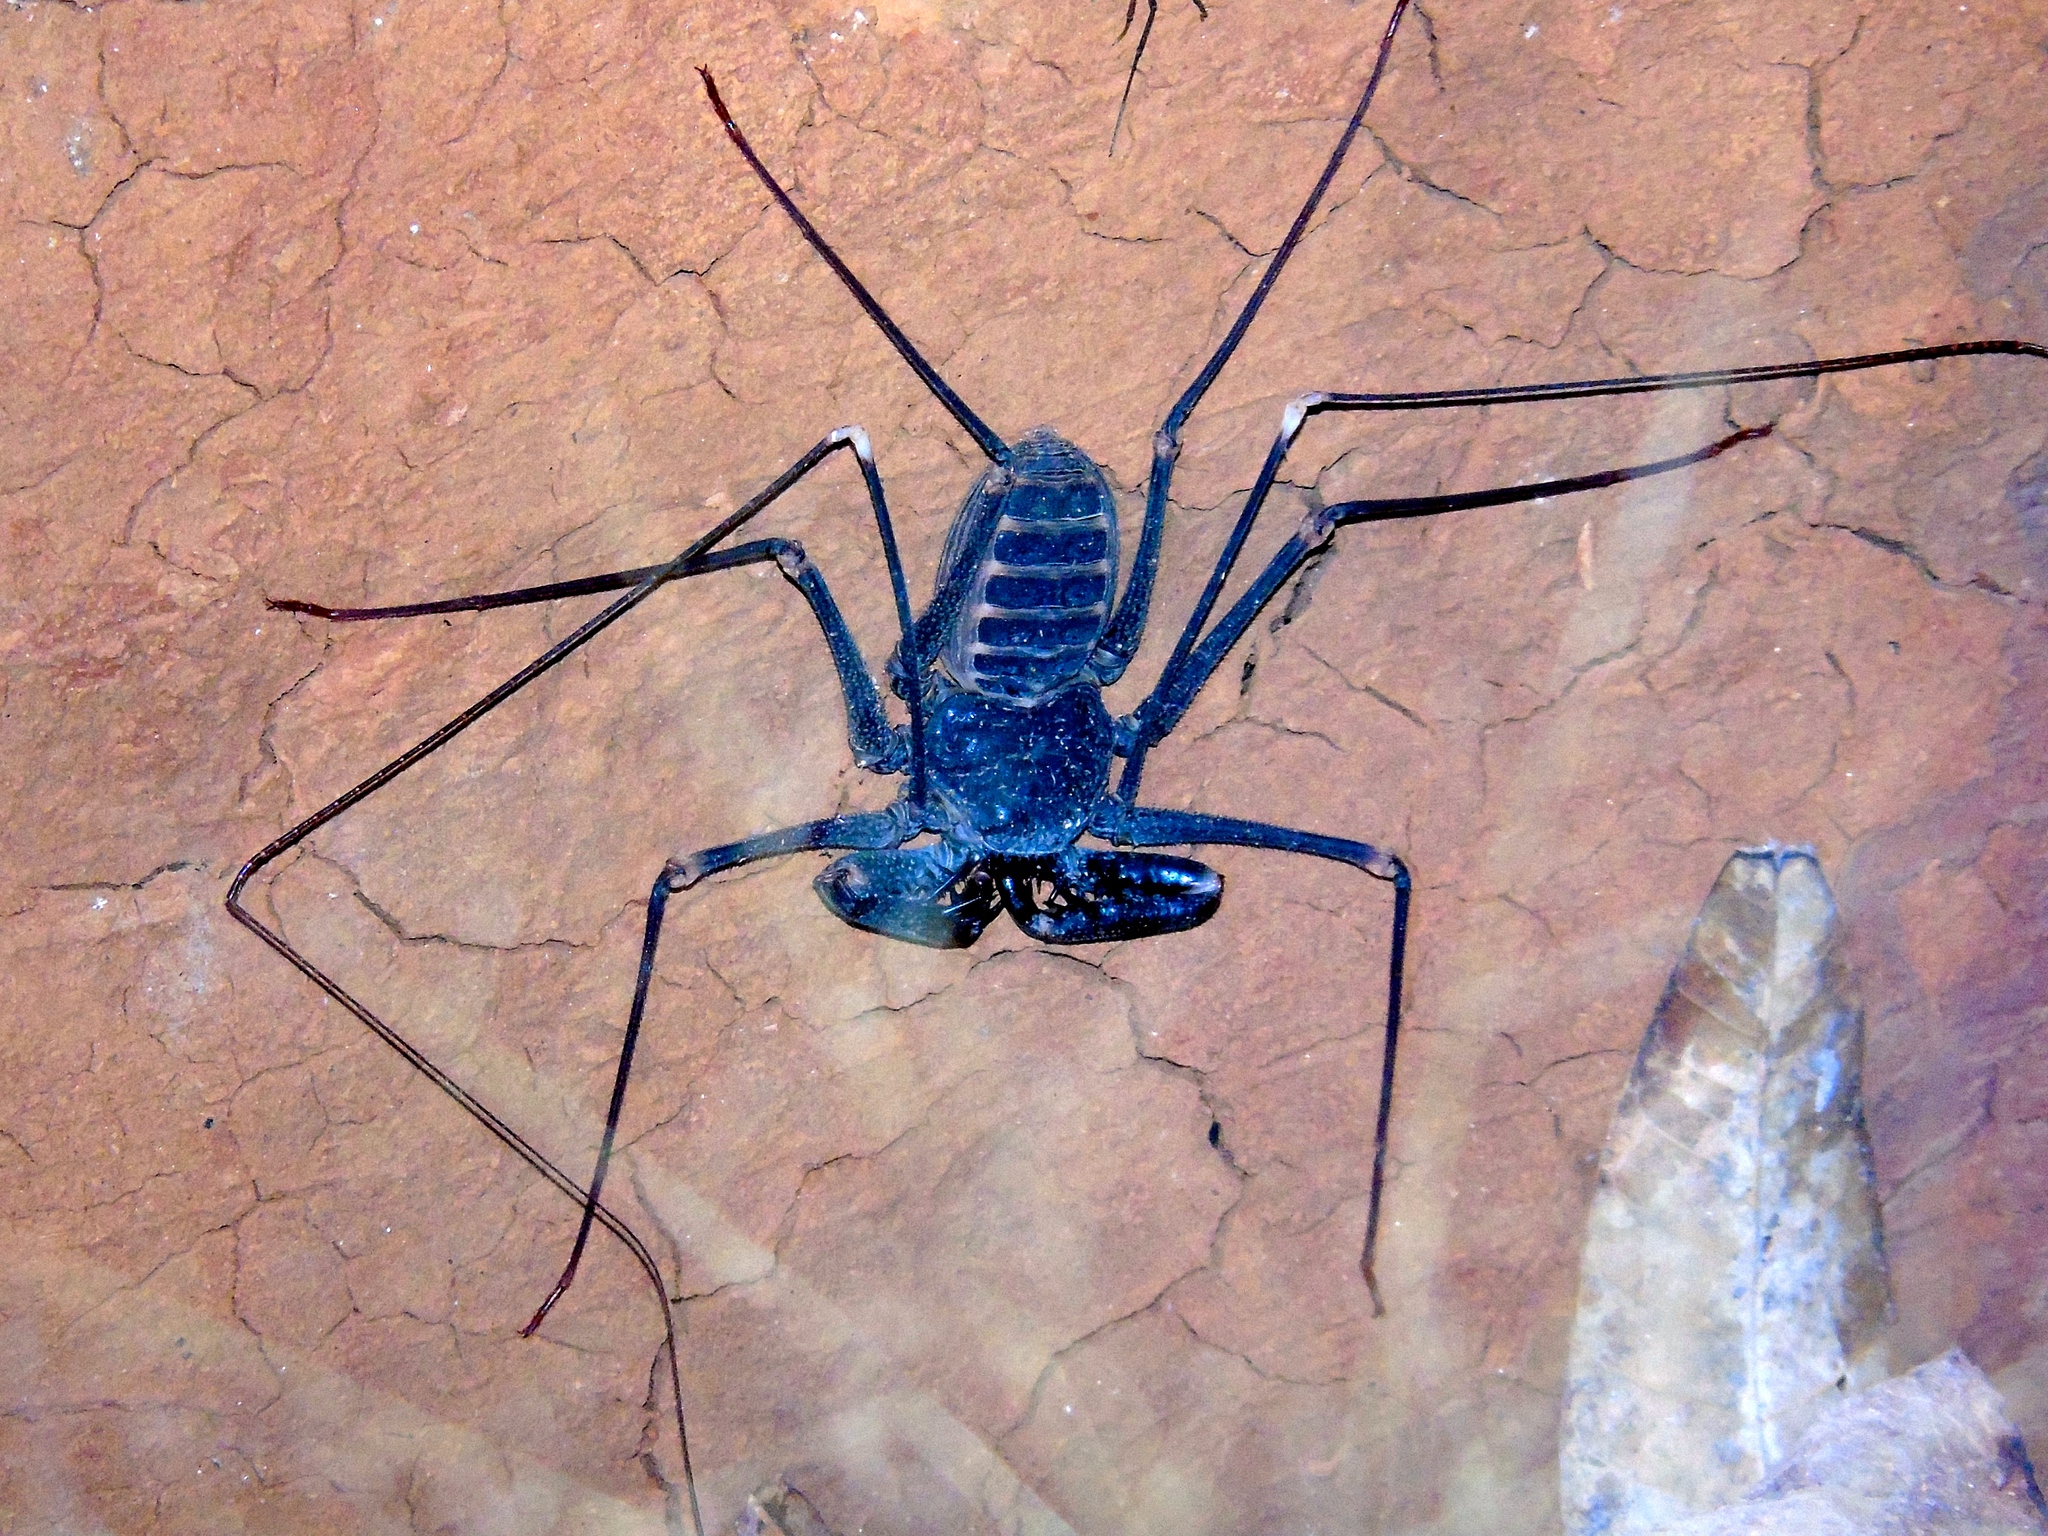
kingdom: Animalia
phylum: Arthropoda
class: Arachnida
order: Amblypygi
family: Phrynidae
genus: Acanthophrynus
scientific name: Acanthophrynus coronatus
